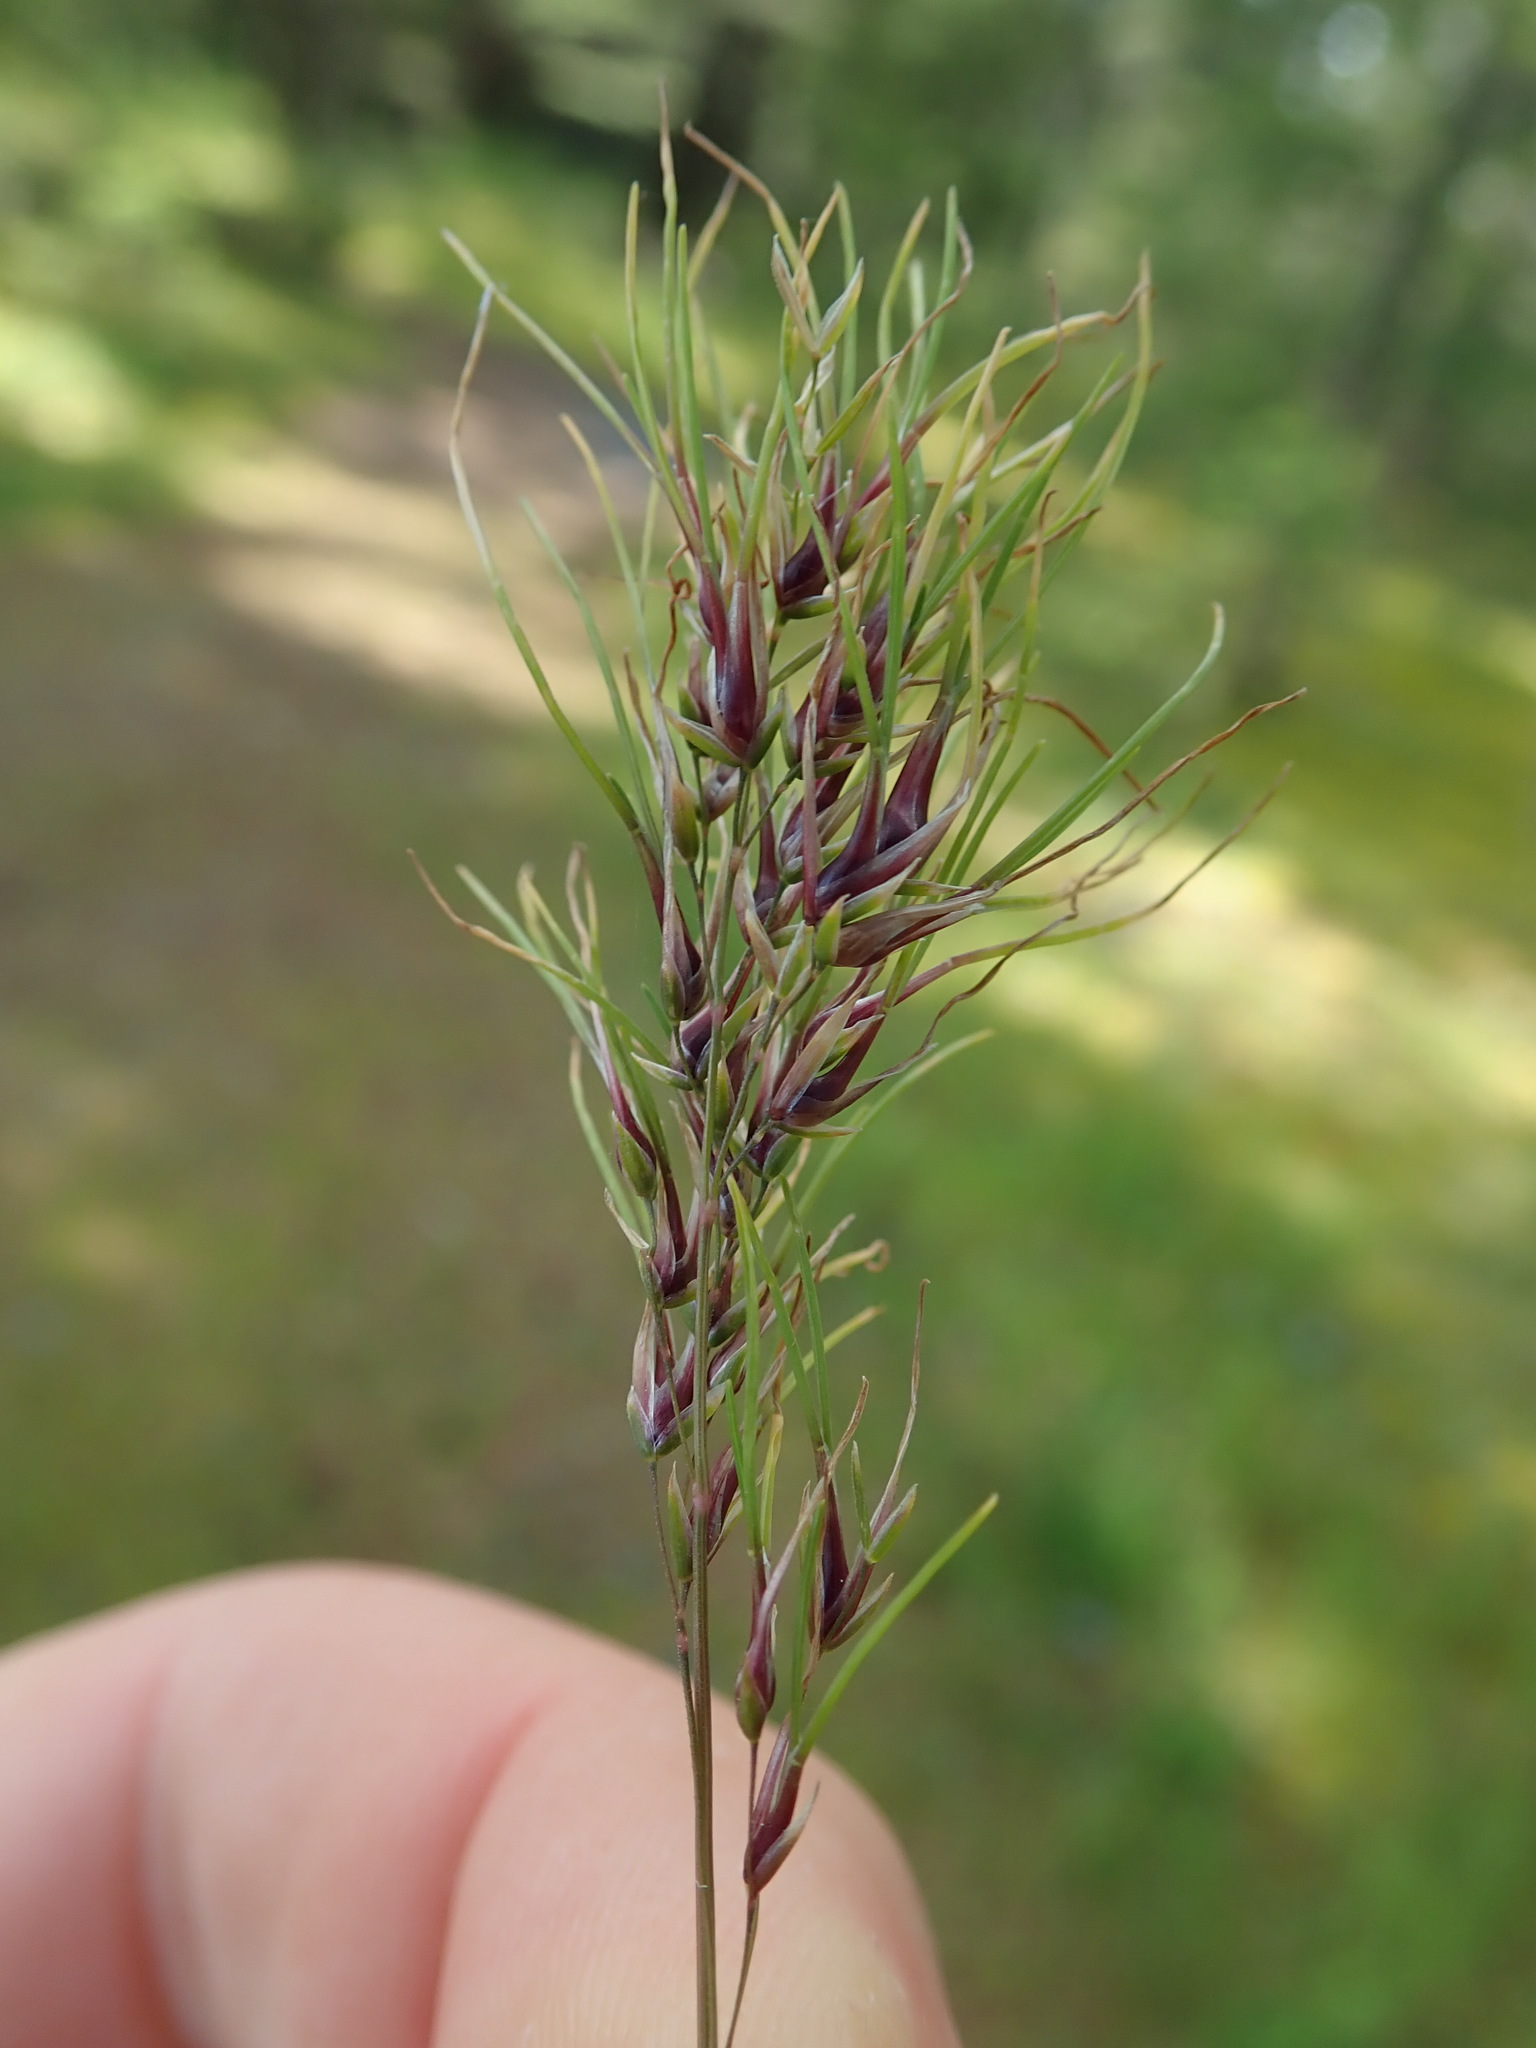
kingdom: Plantae
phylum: Tracheophyta
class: Liliopsida
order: Poales
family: Poaceae
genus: Poa
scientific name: Poa bulbosa
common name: Bulbous bluegrass
